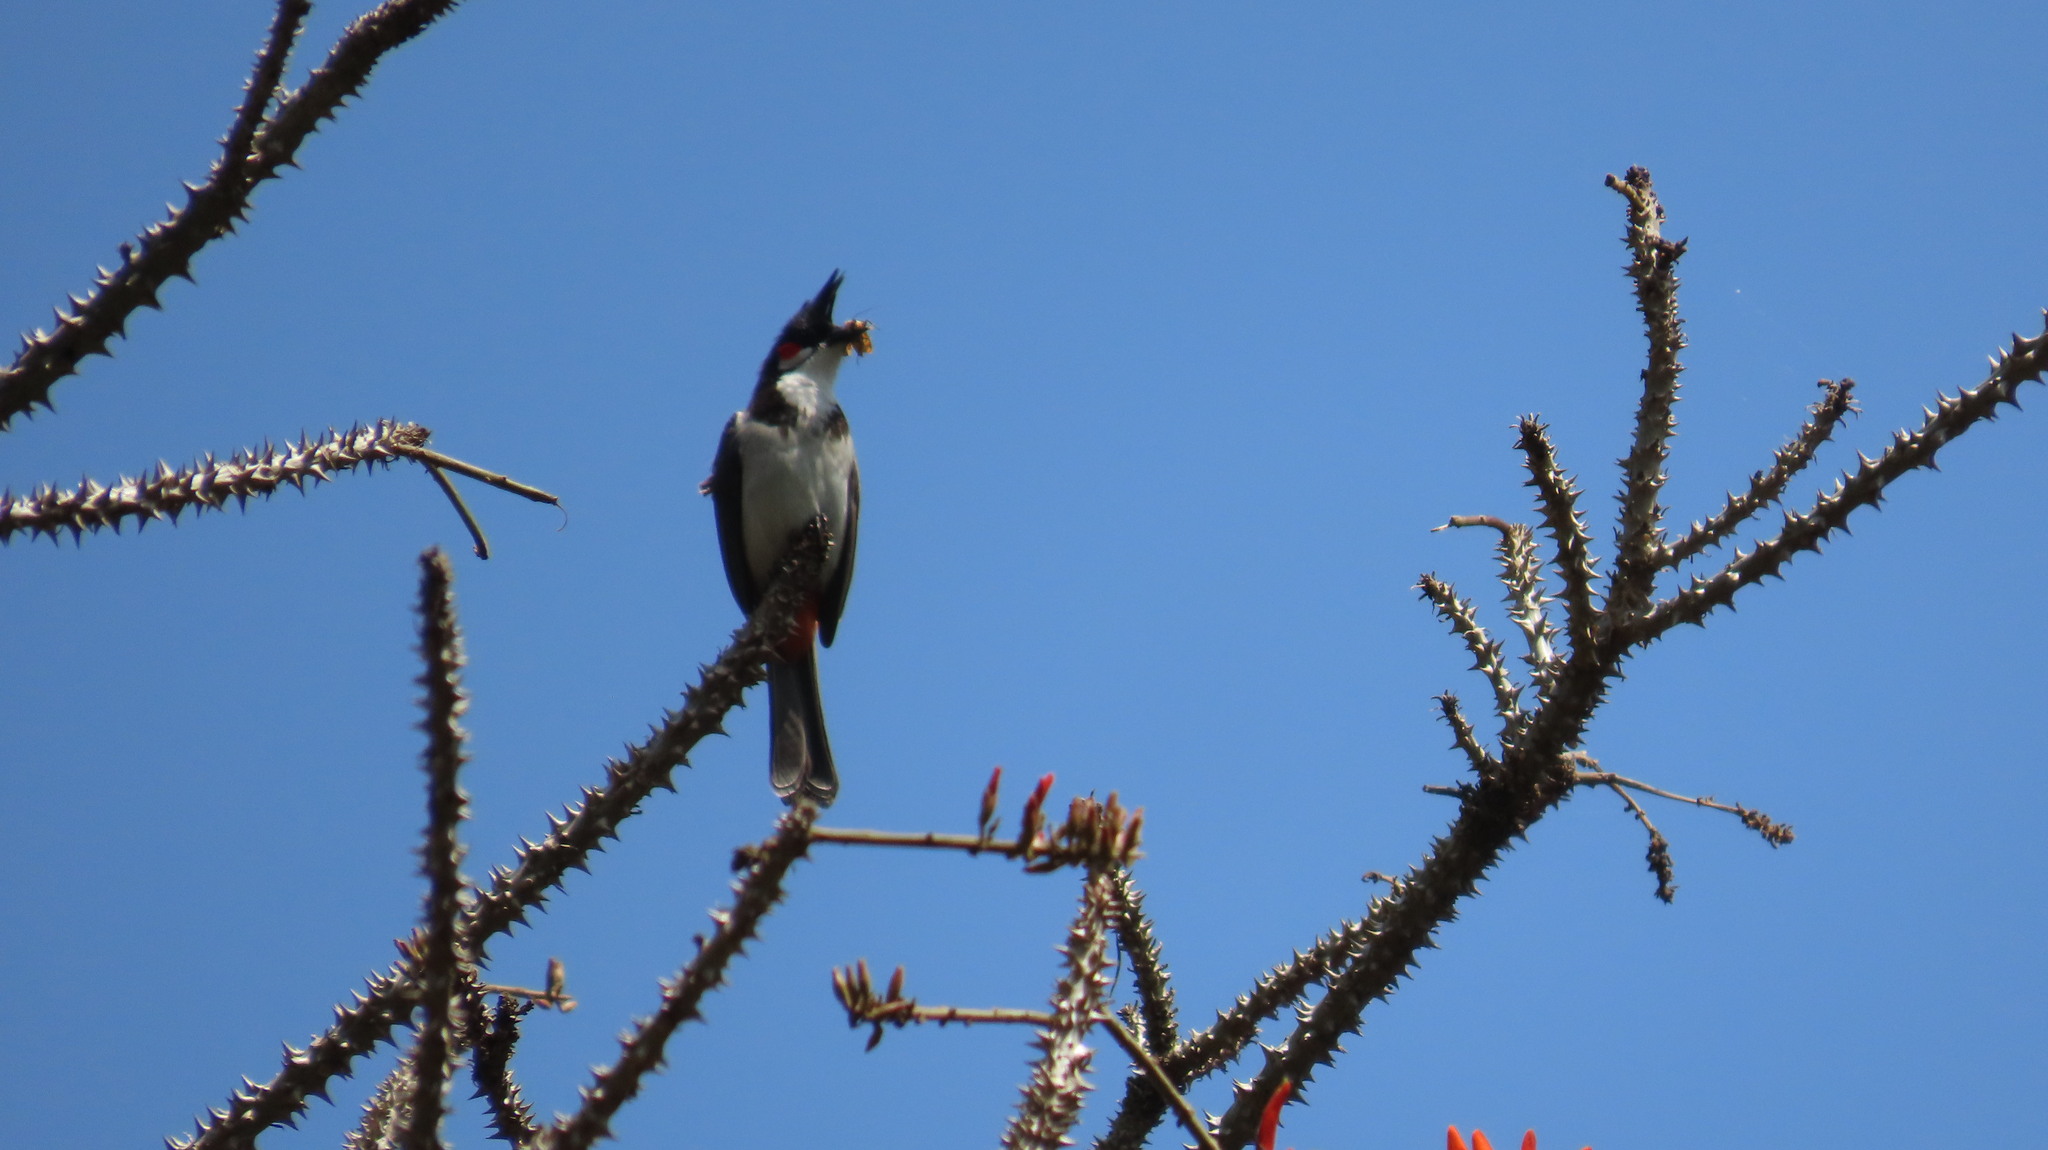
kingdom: Animalia
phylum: Chordata
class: Aves
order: Passeriformes
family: Pycnonotidae
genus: Pycnonotus
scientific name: Pycnonotus jocosus
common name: Red-whiskered bulbul
